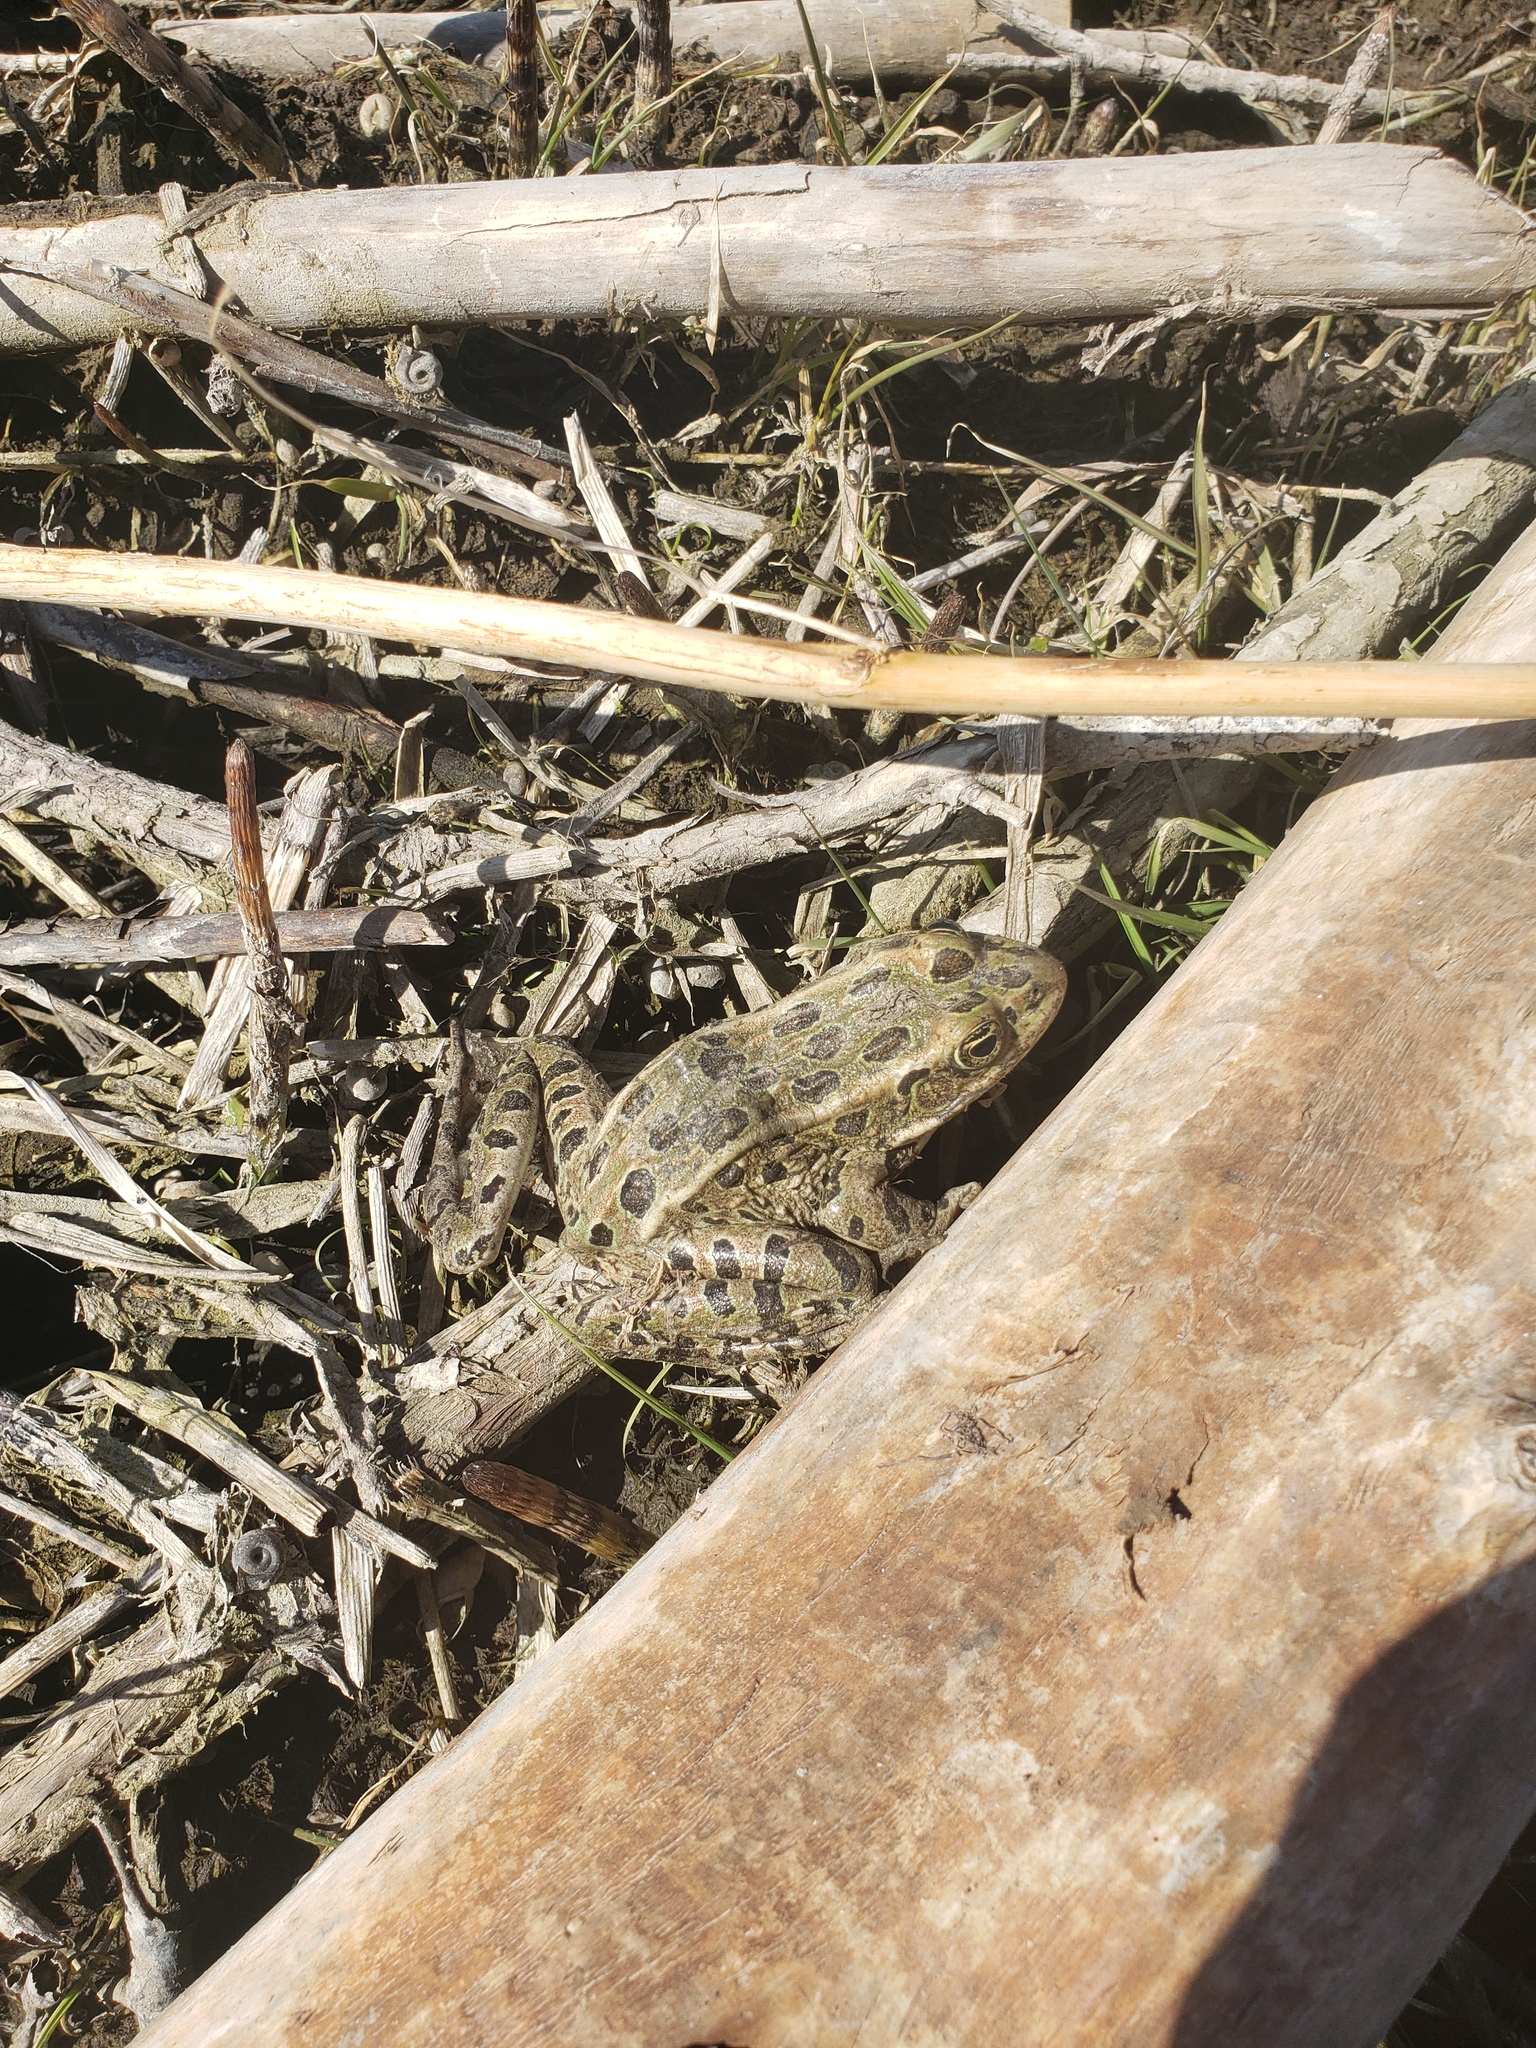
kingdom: Animalia
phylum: Chordata
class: Amphibia
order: Anura
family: Ranidae
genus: Lithobates
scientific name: Lithobates pipiens
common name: Northern leopard frog
